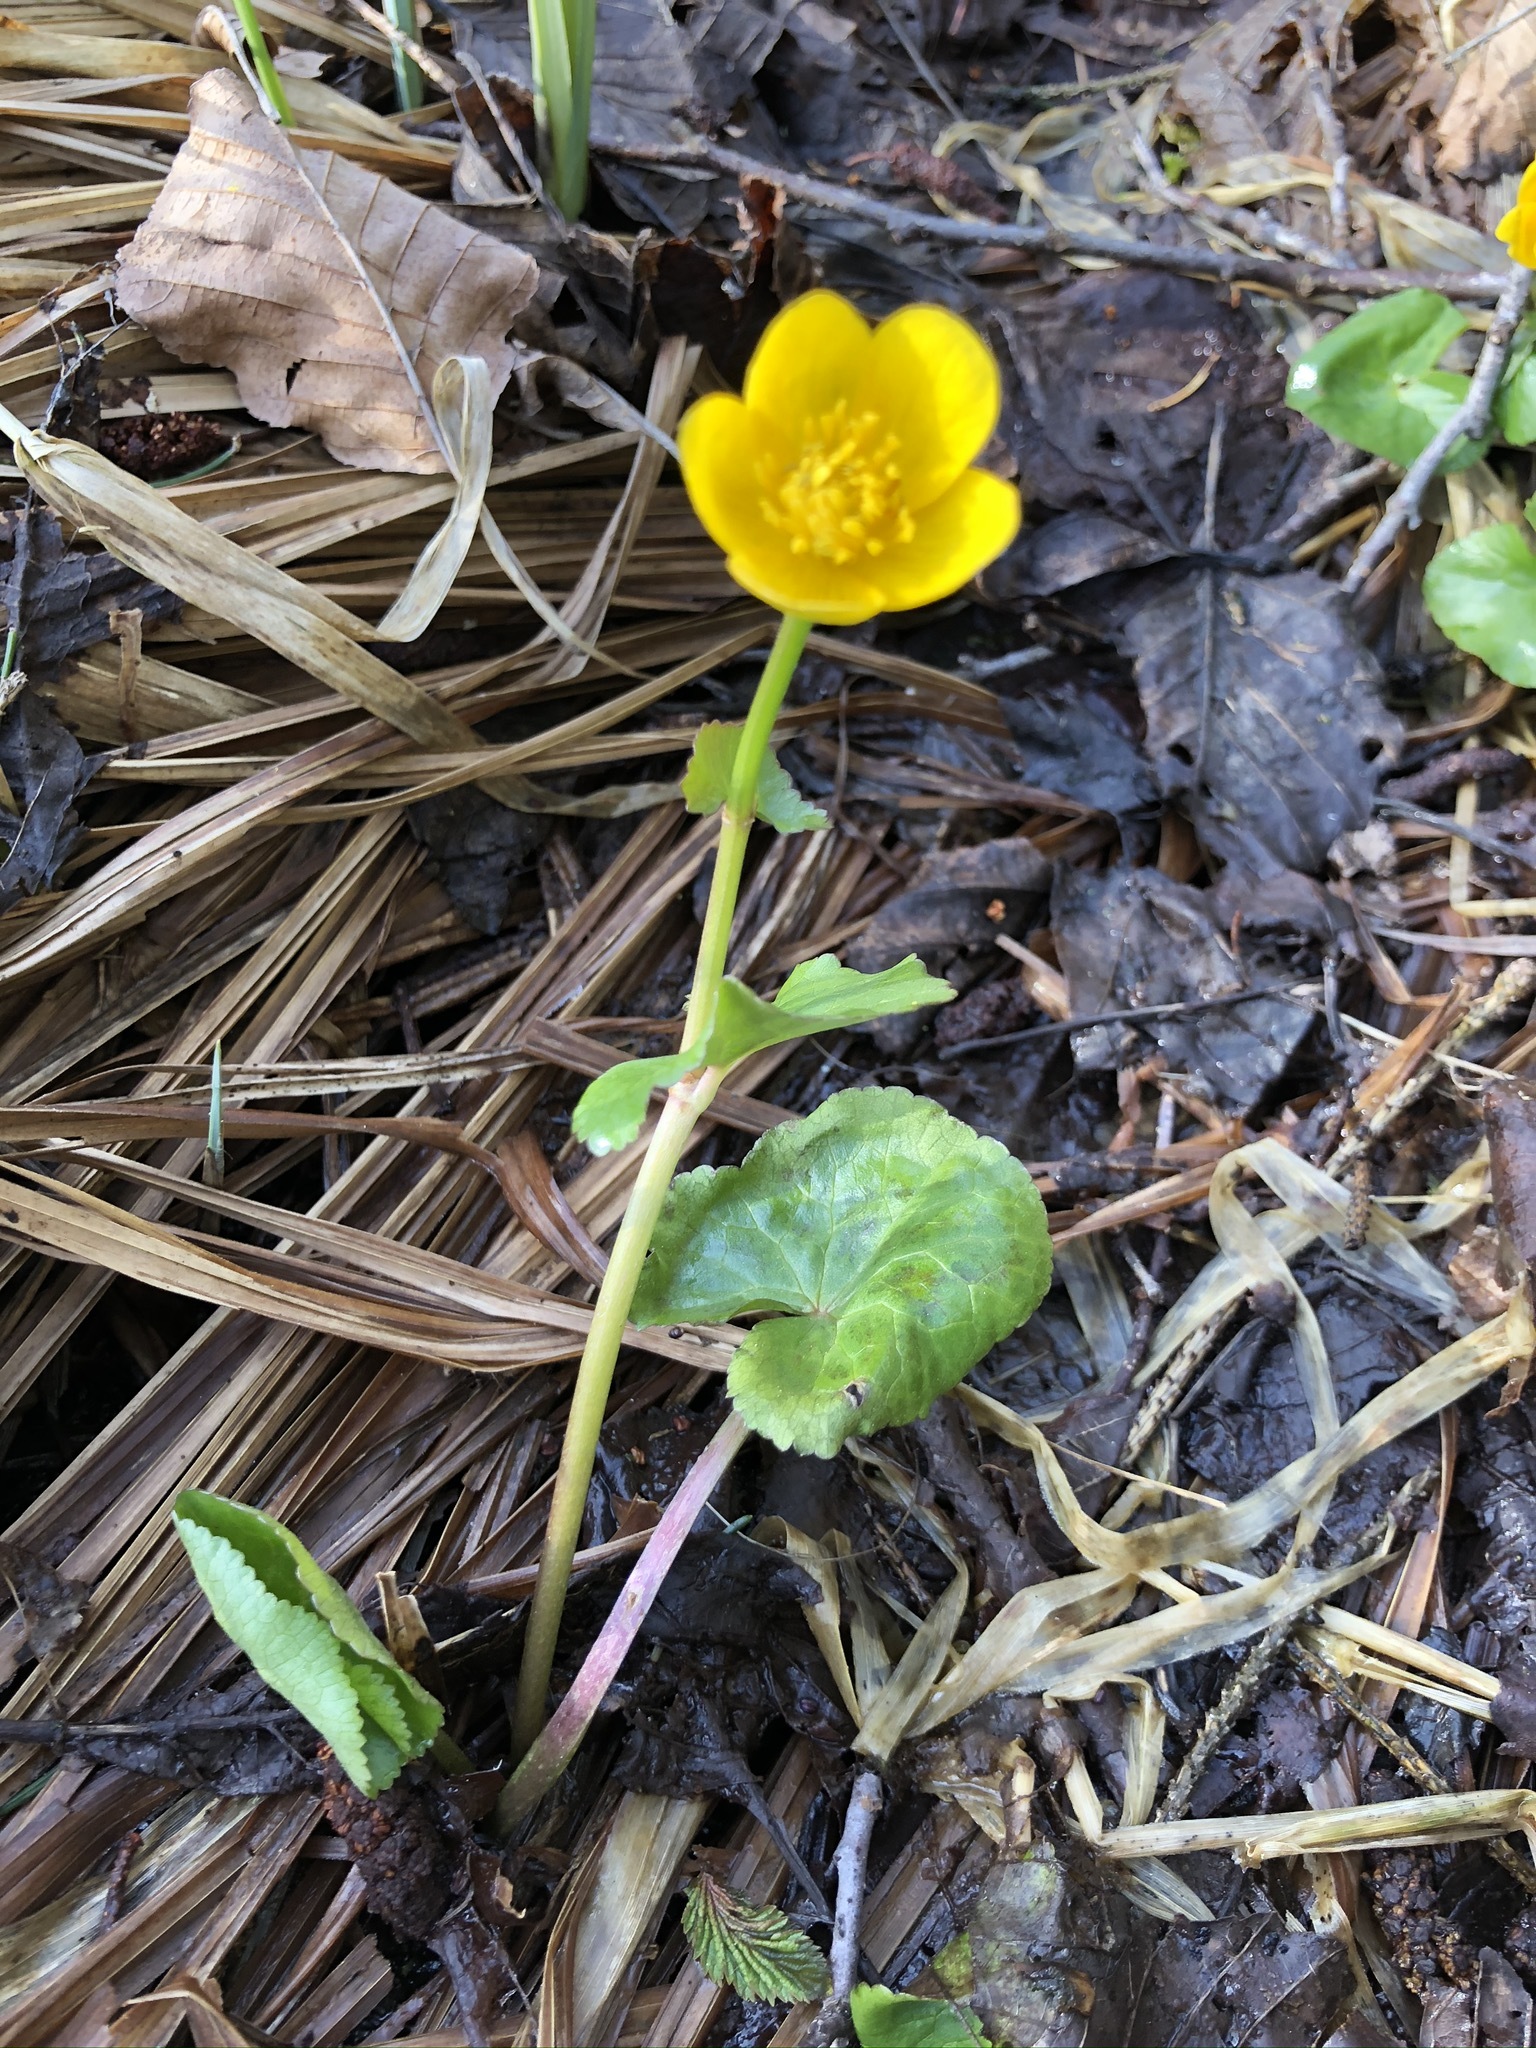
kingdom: Plantae
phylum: Tracheophyta
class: Magnoliopsida
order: Ranunculales
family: Ranunculaceae
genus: Caltha
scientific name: Caltha palustris
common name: Marsh marigold
